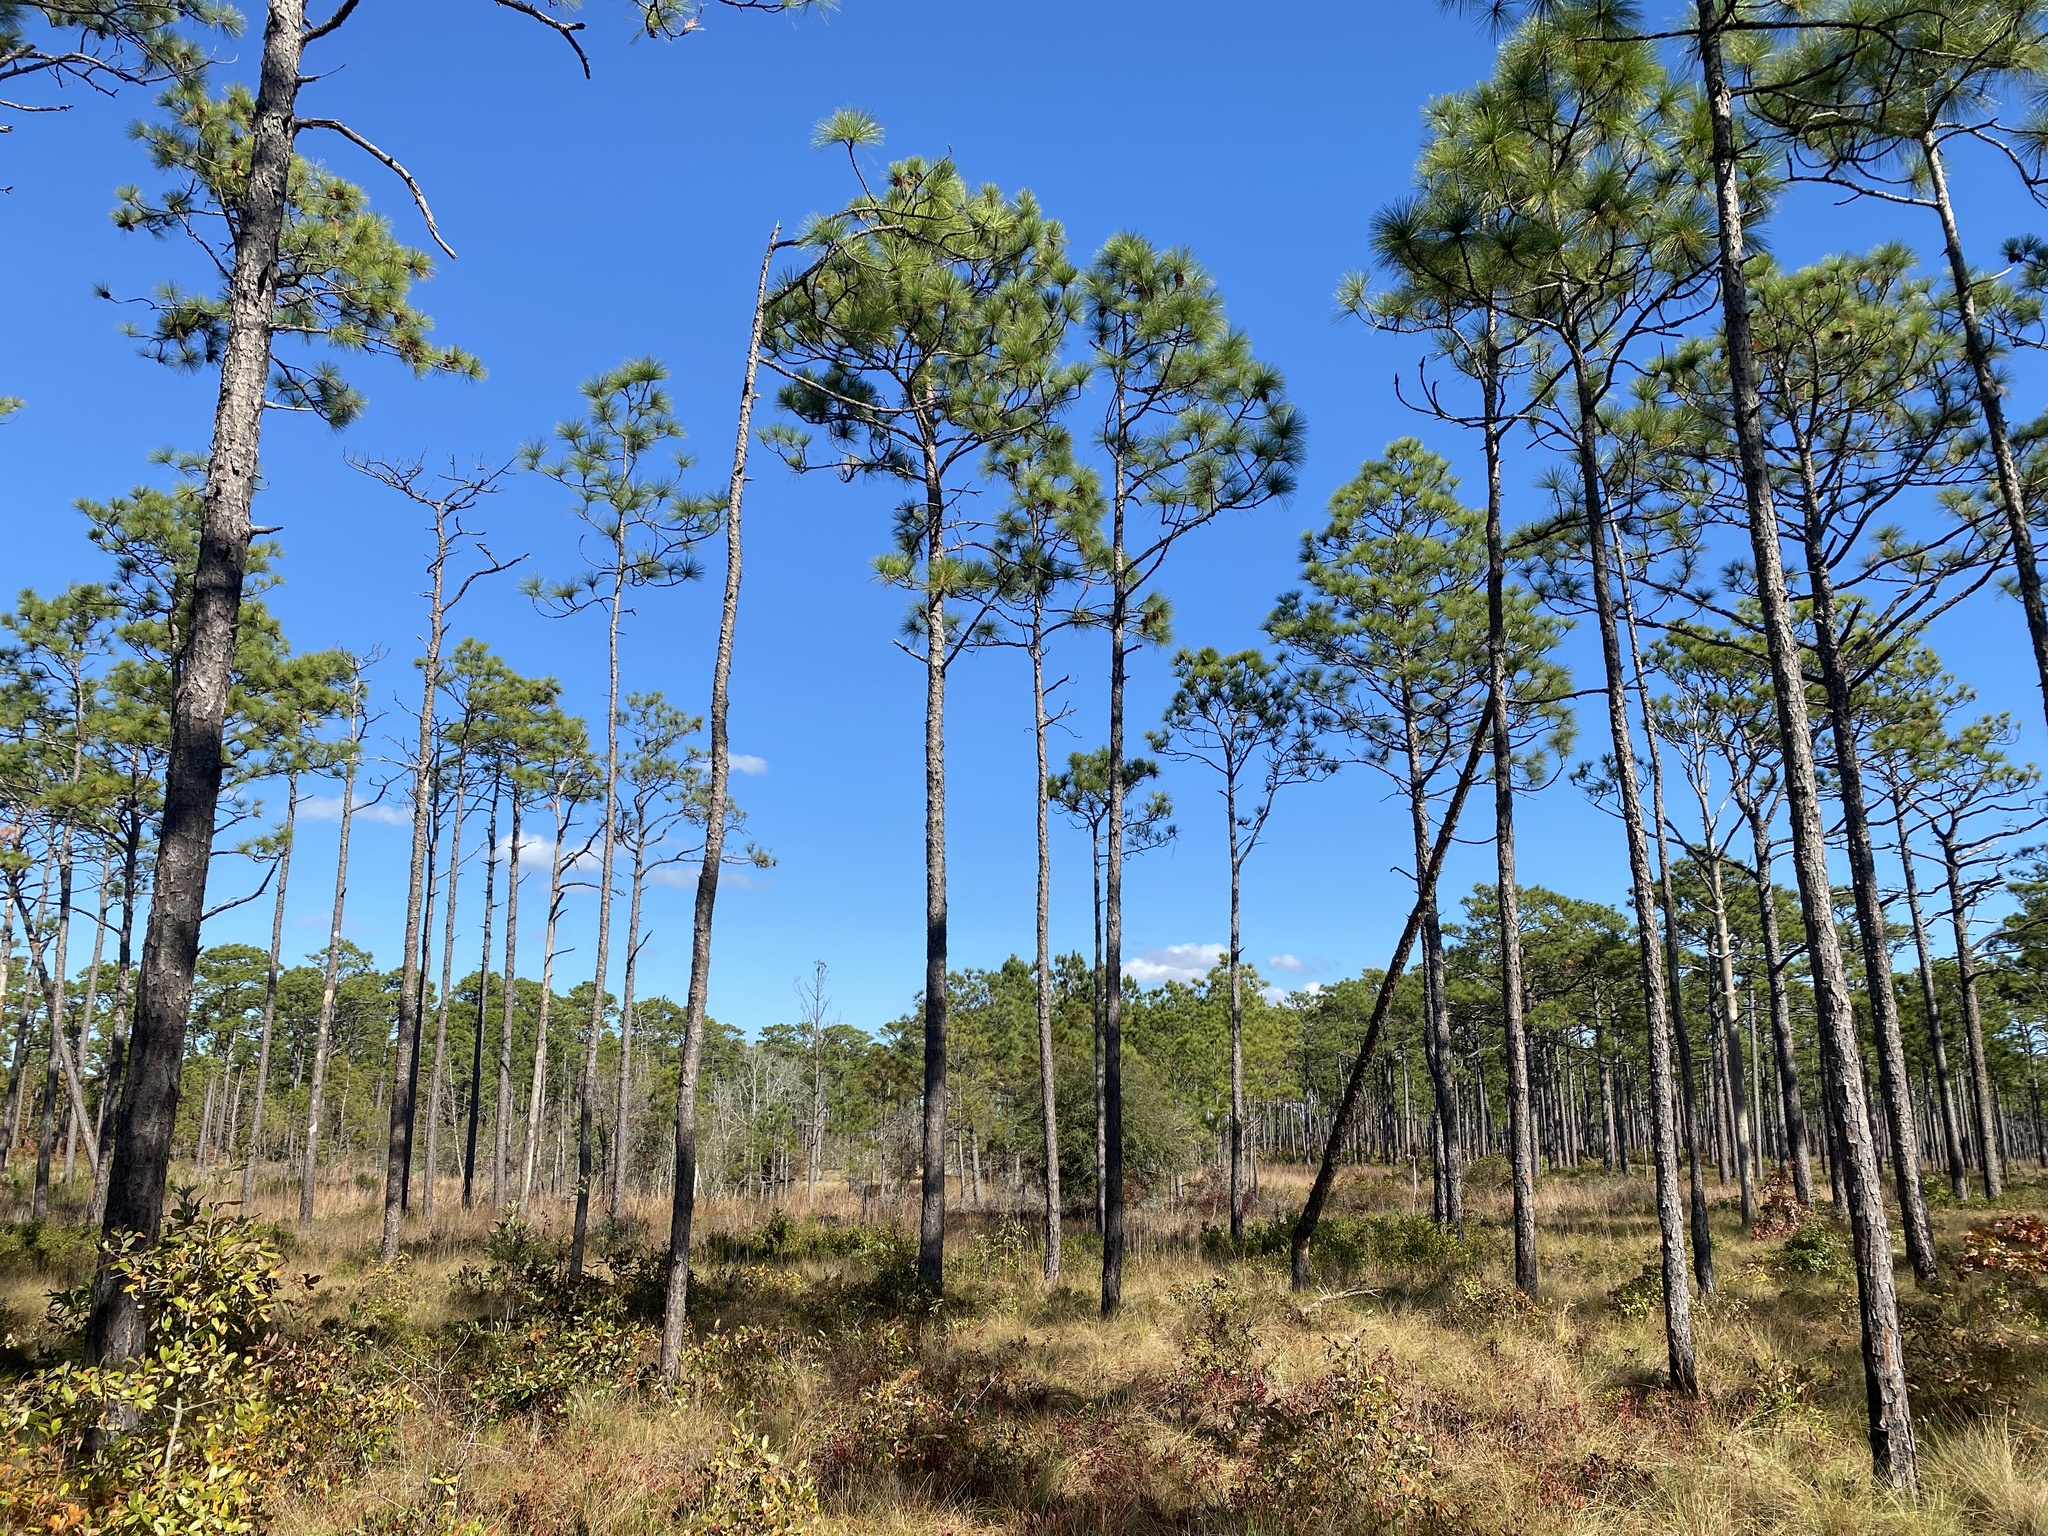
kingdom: Plantae
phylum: Tracheophyta
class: Pinopsida
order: Pinales
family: Pinaceae
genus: Pinus
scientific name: Pinus palustris
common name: Longleaf pine
